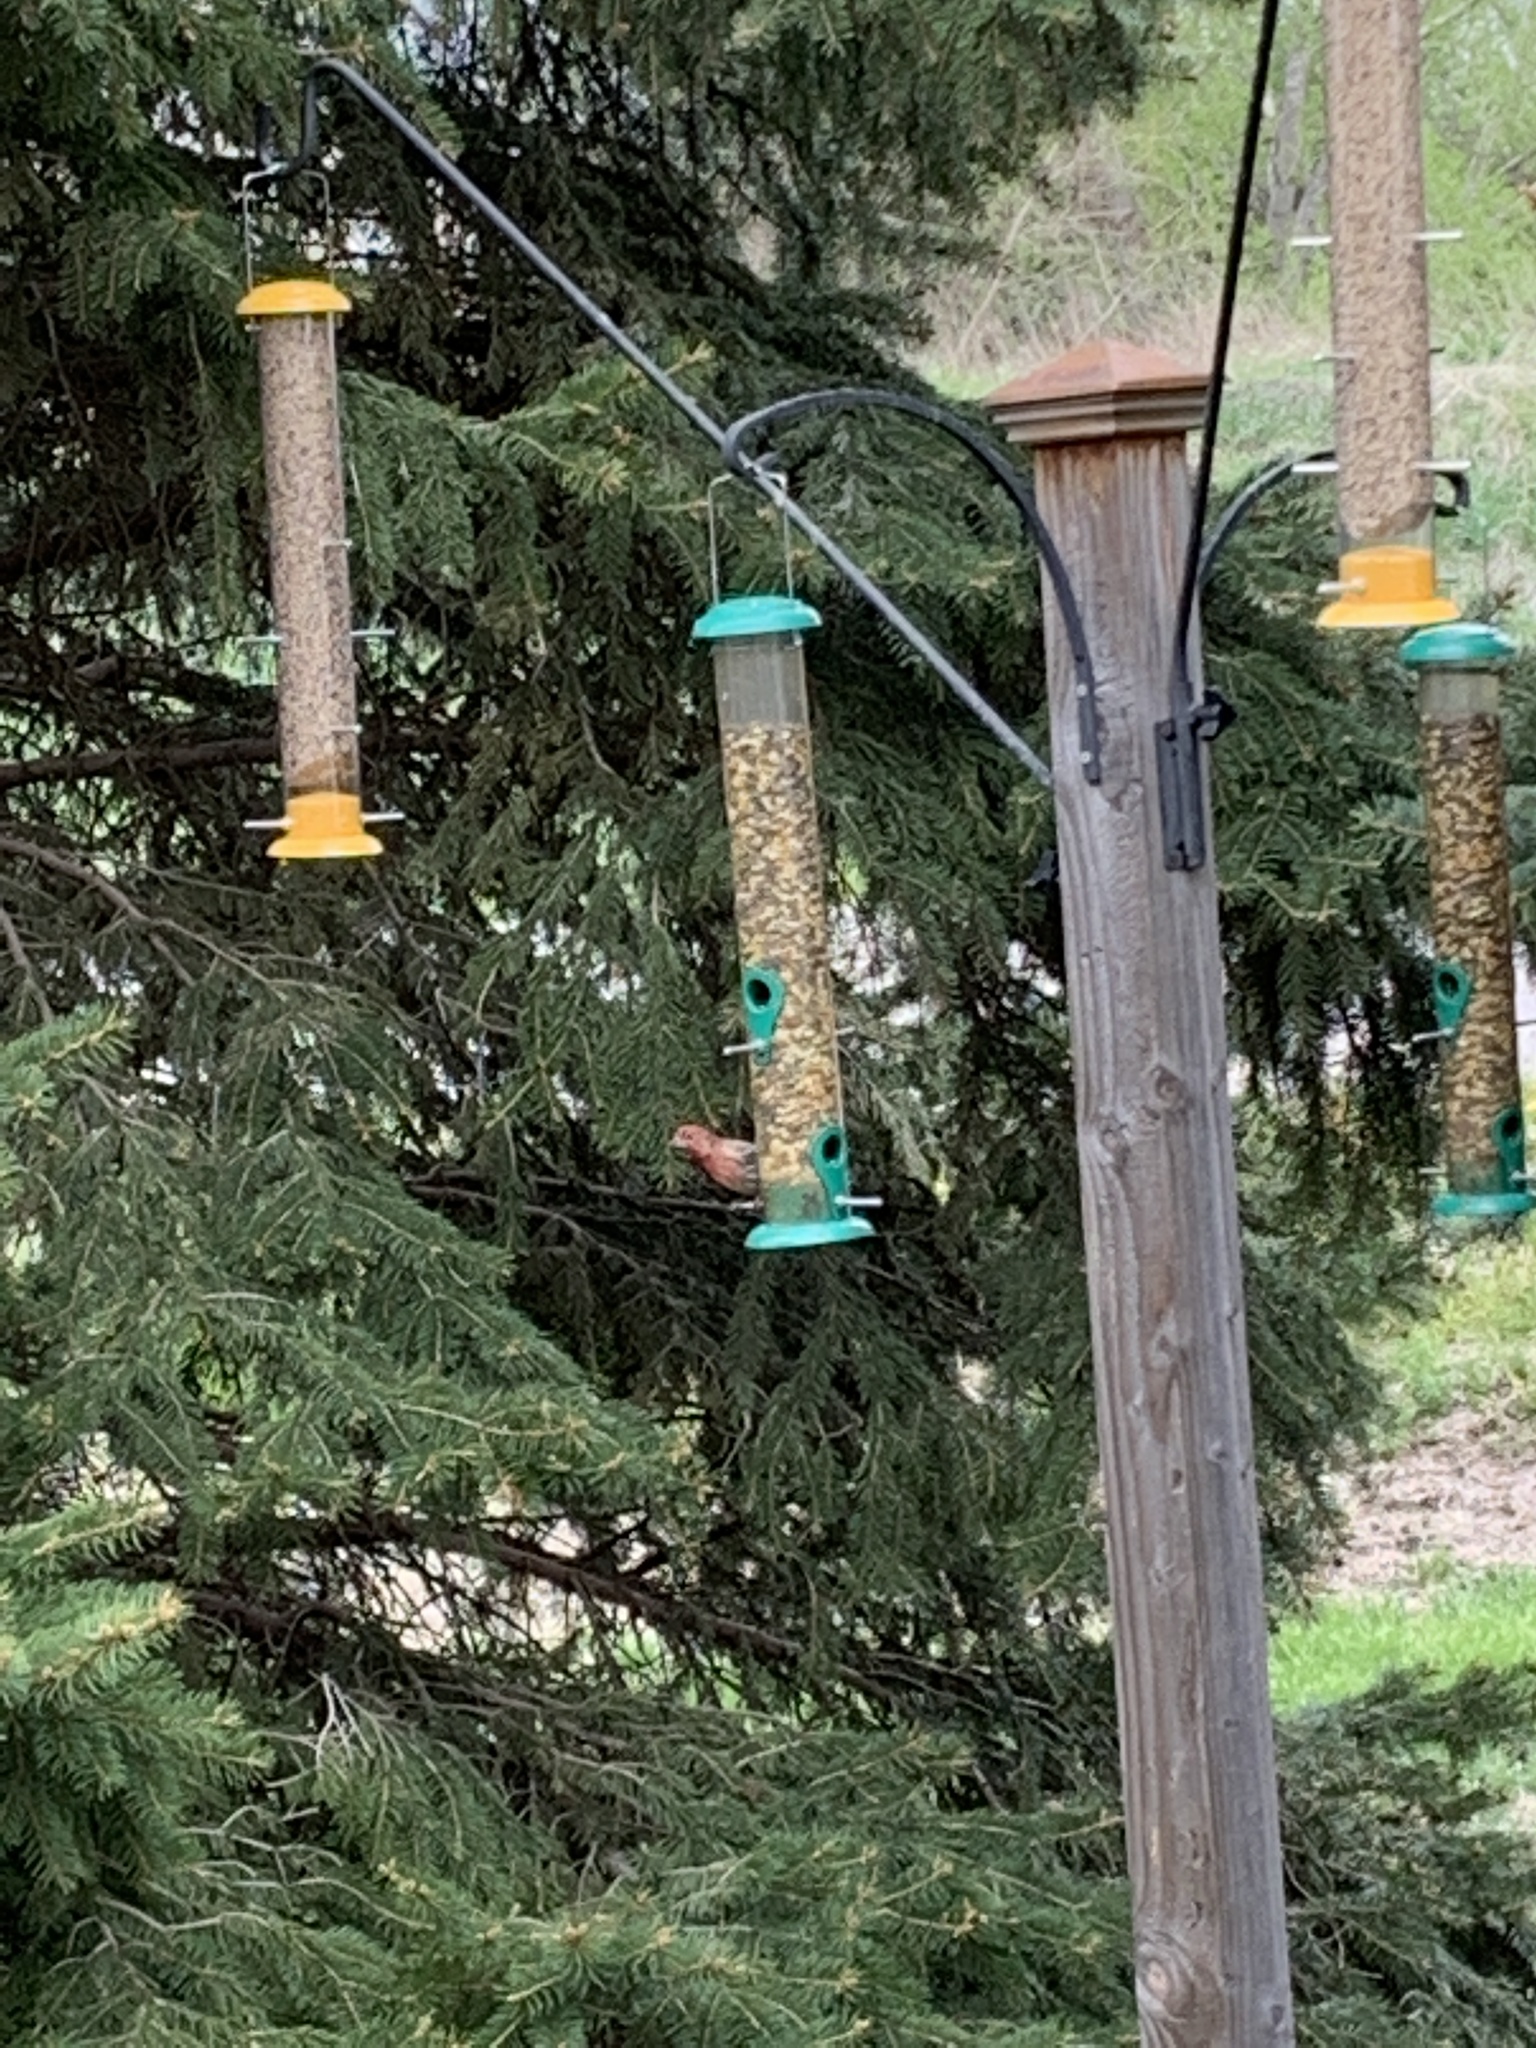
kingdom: Animalia
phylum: Chordata
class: Aves
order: Passeriformes
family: Fringillidae
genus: Haemorhous
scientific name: Haemorhous mexicanus
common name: House finch
